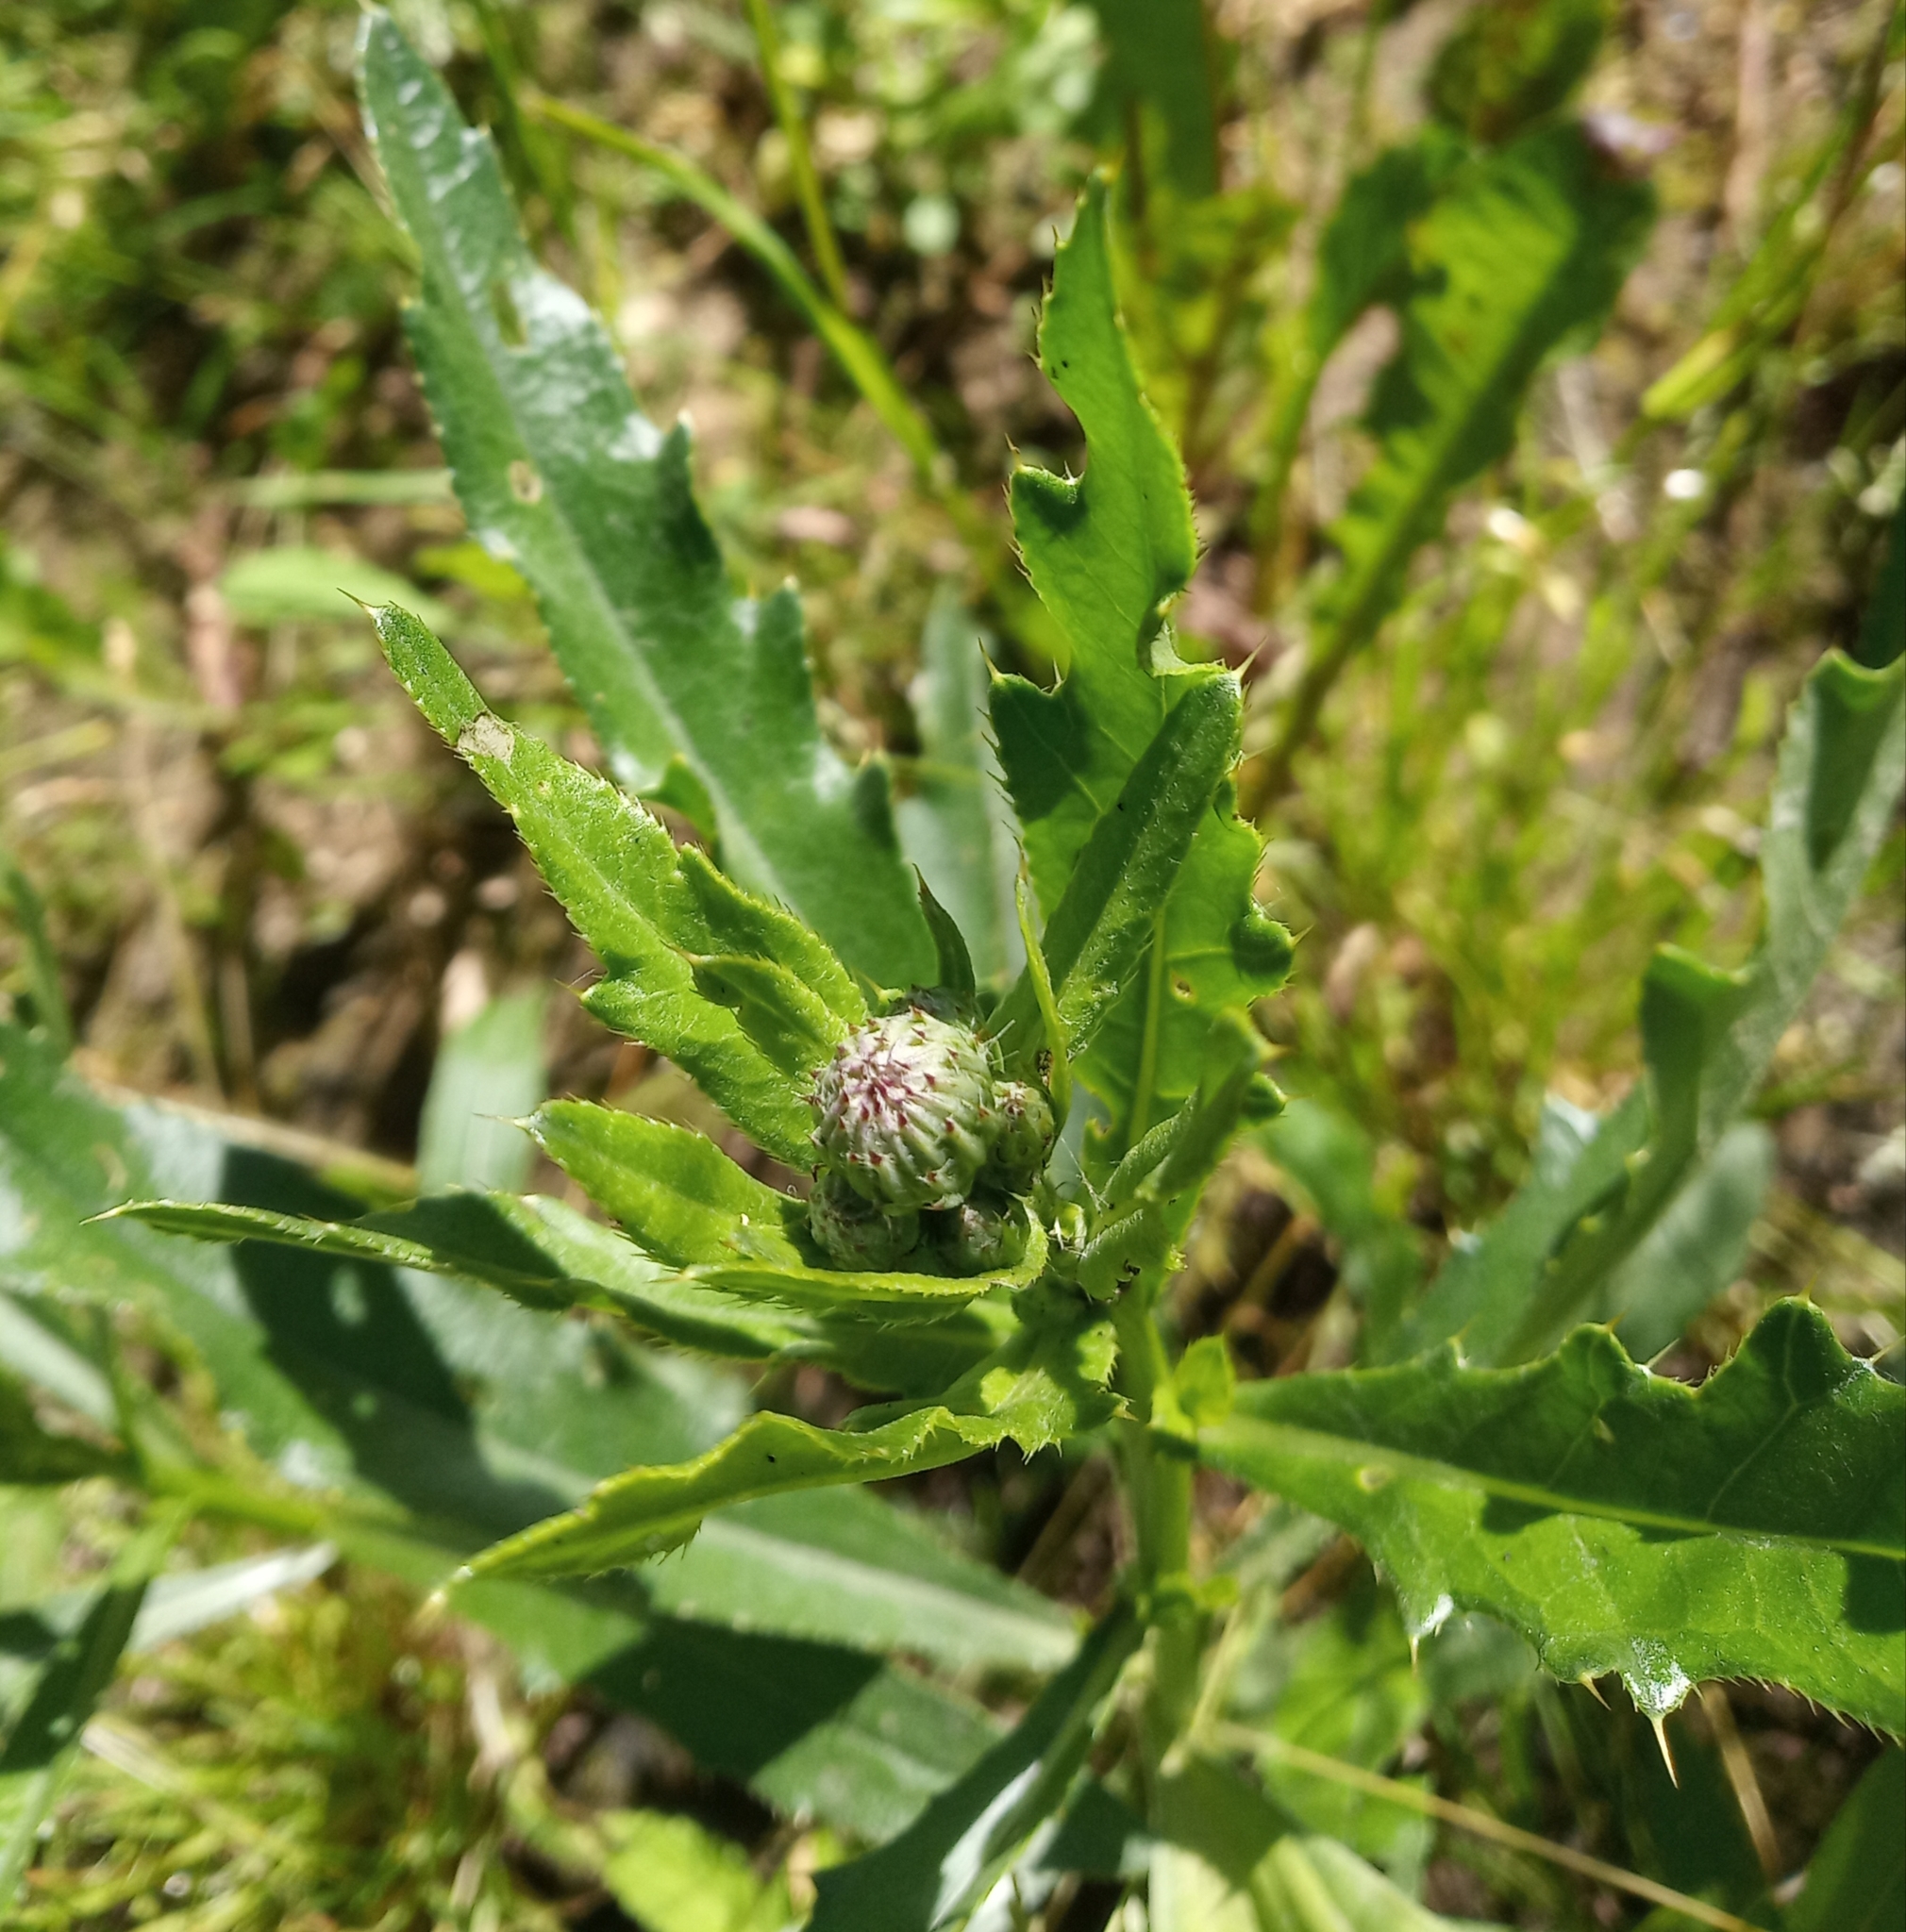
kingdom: Plantae
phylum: Tracheophyta
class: Magnoliopsida
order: Asterales
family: Asteraceae
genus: Cirsium
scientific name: Cirsium arvense
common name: Creeping thistle
